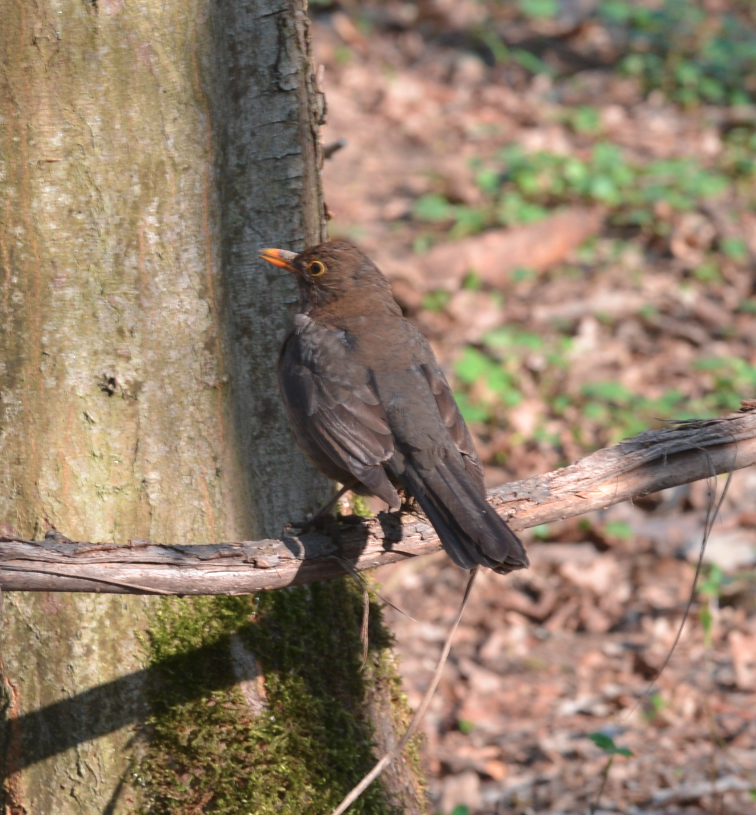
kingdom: Animalia
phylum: Chordata
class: Aves
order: Passeriformes
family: Turdidae
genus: Turdus
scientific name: Turdus merula
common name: Common blackbird
